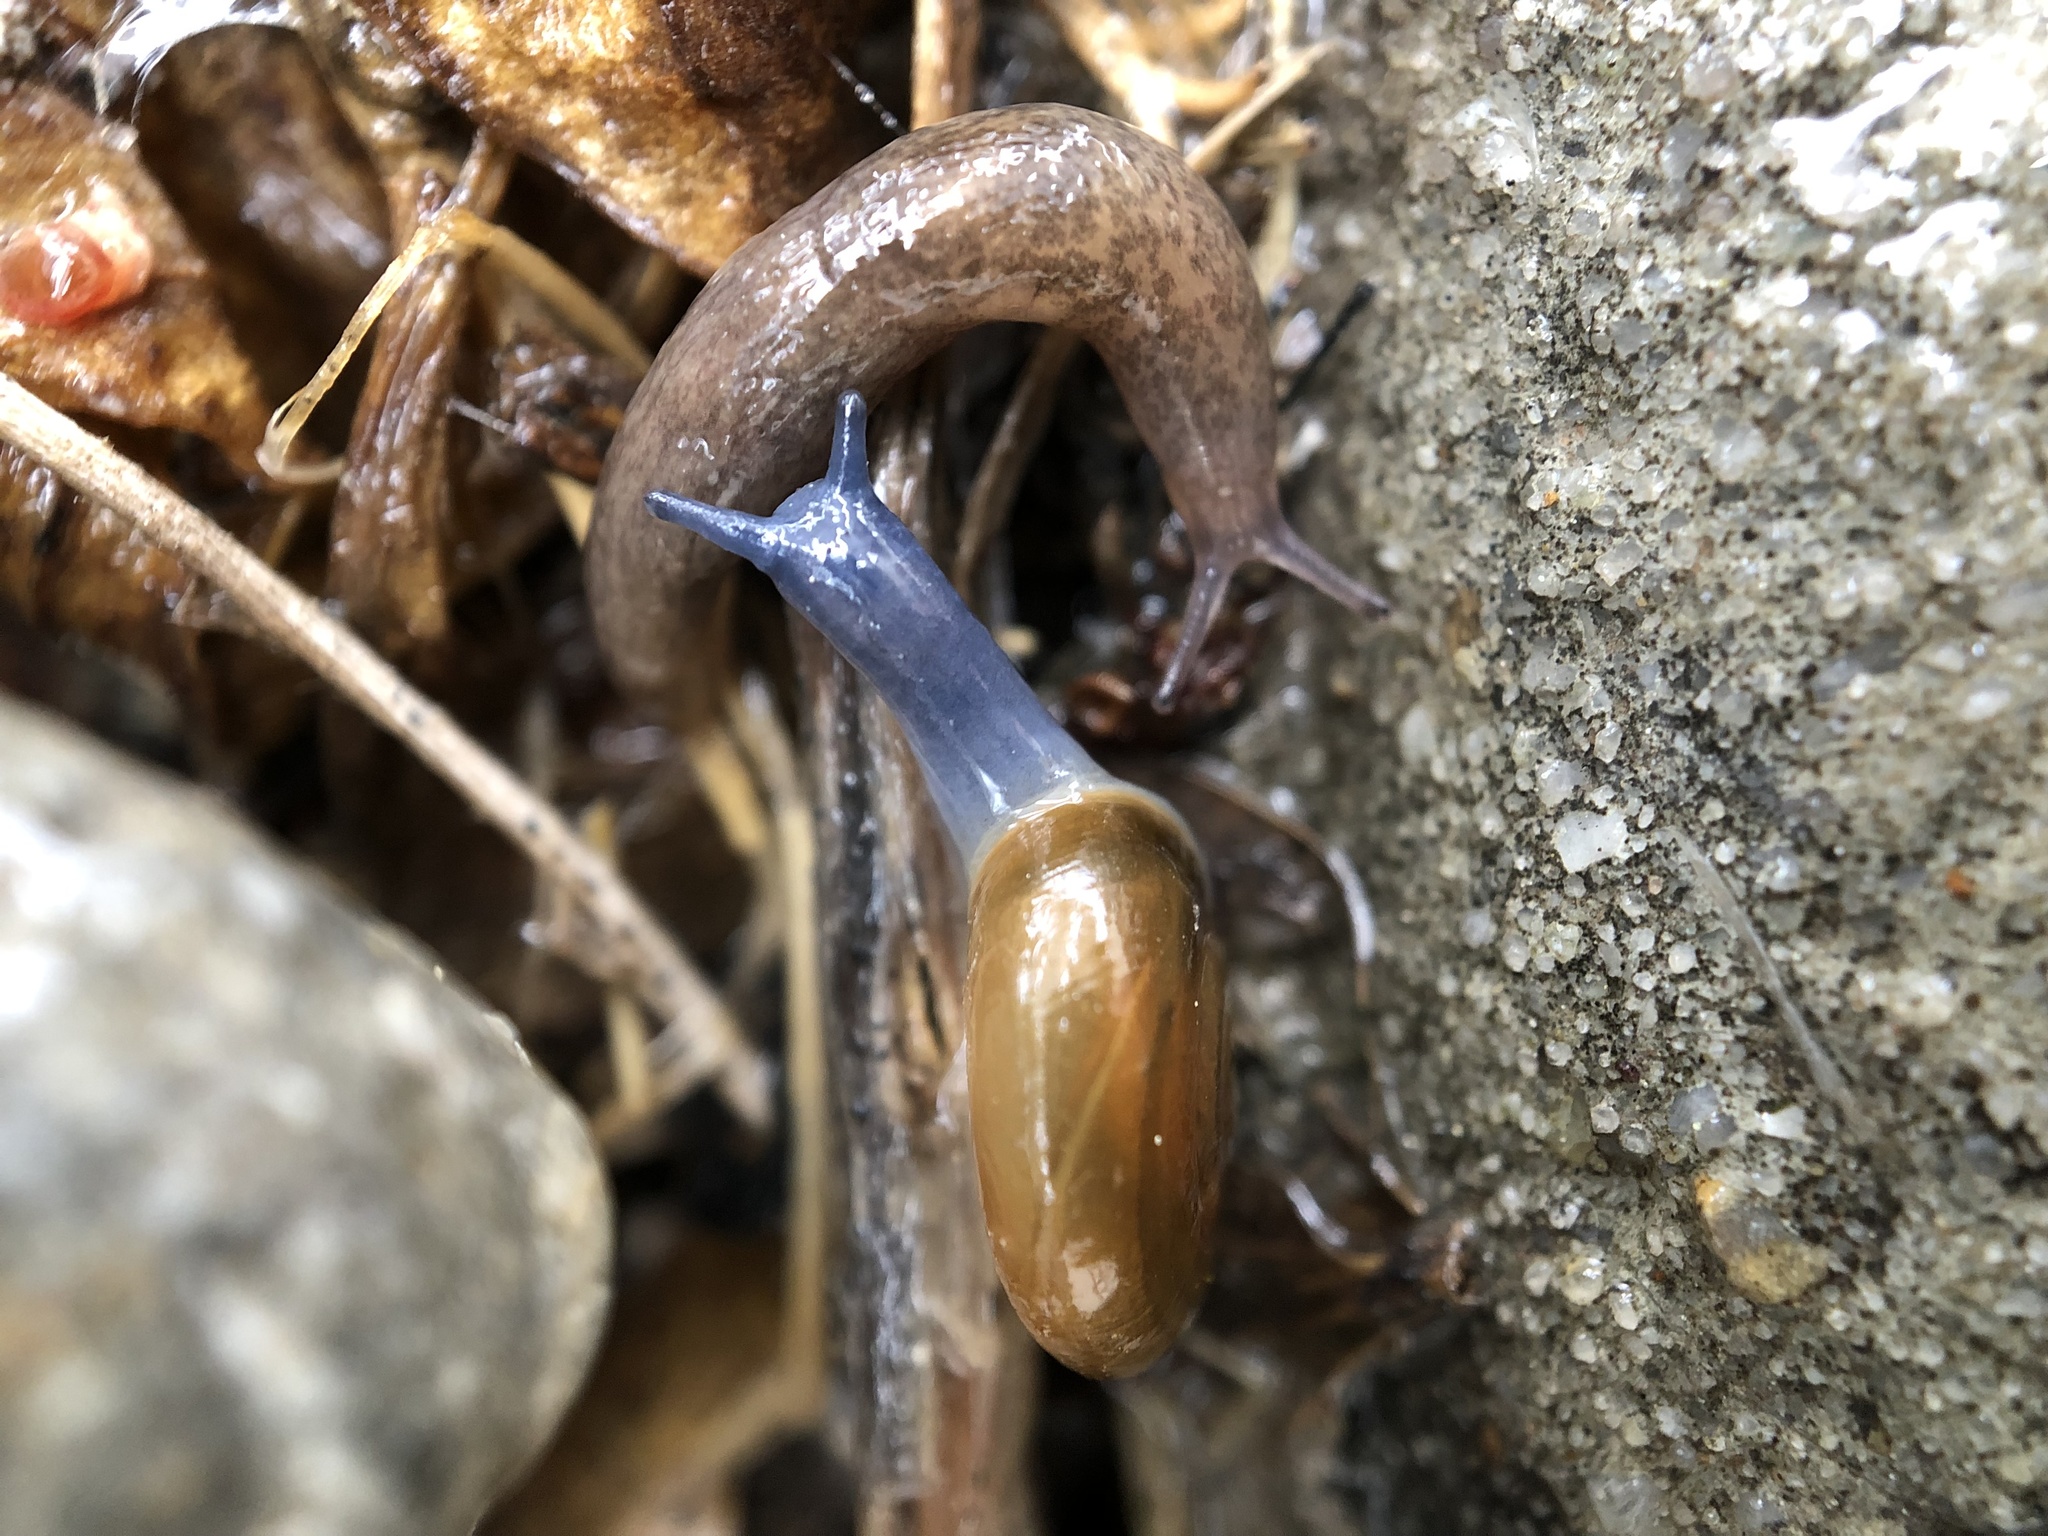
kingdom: Animalia
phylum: Mollusca
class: Gastropoda
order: Stylommatophora
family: Oxychilidae
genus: Oxychilus
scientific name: Oxychilus draparnaudi
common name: Draparnaud's glass snail
